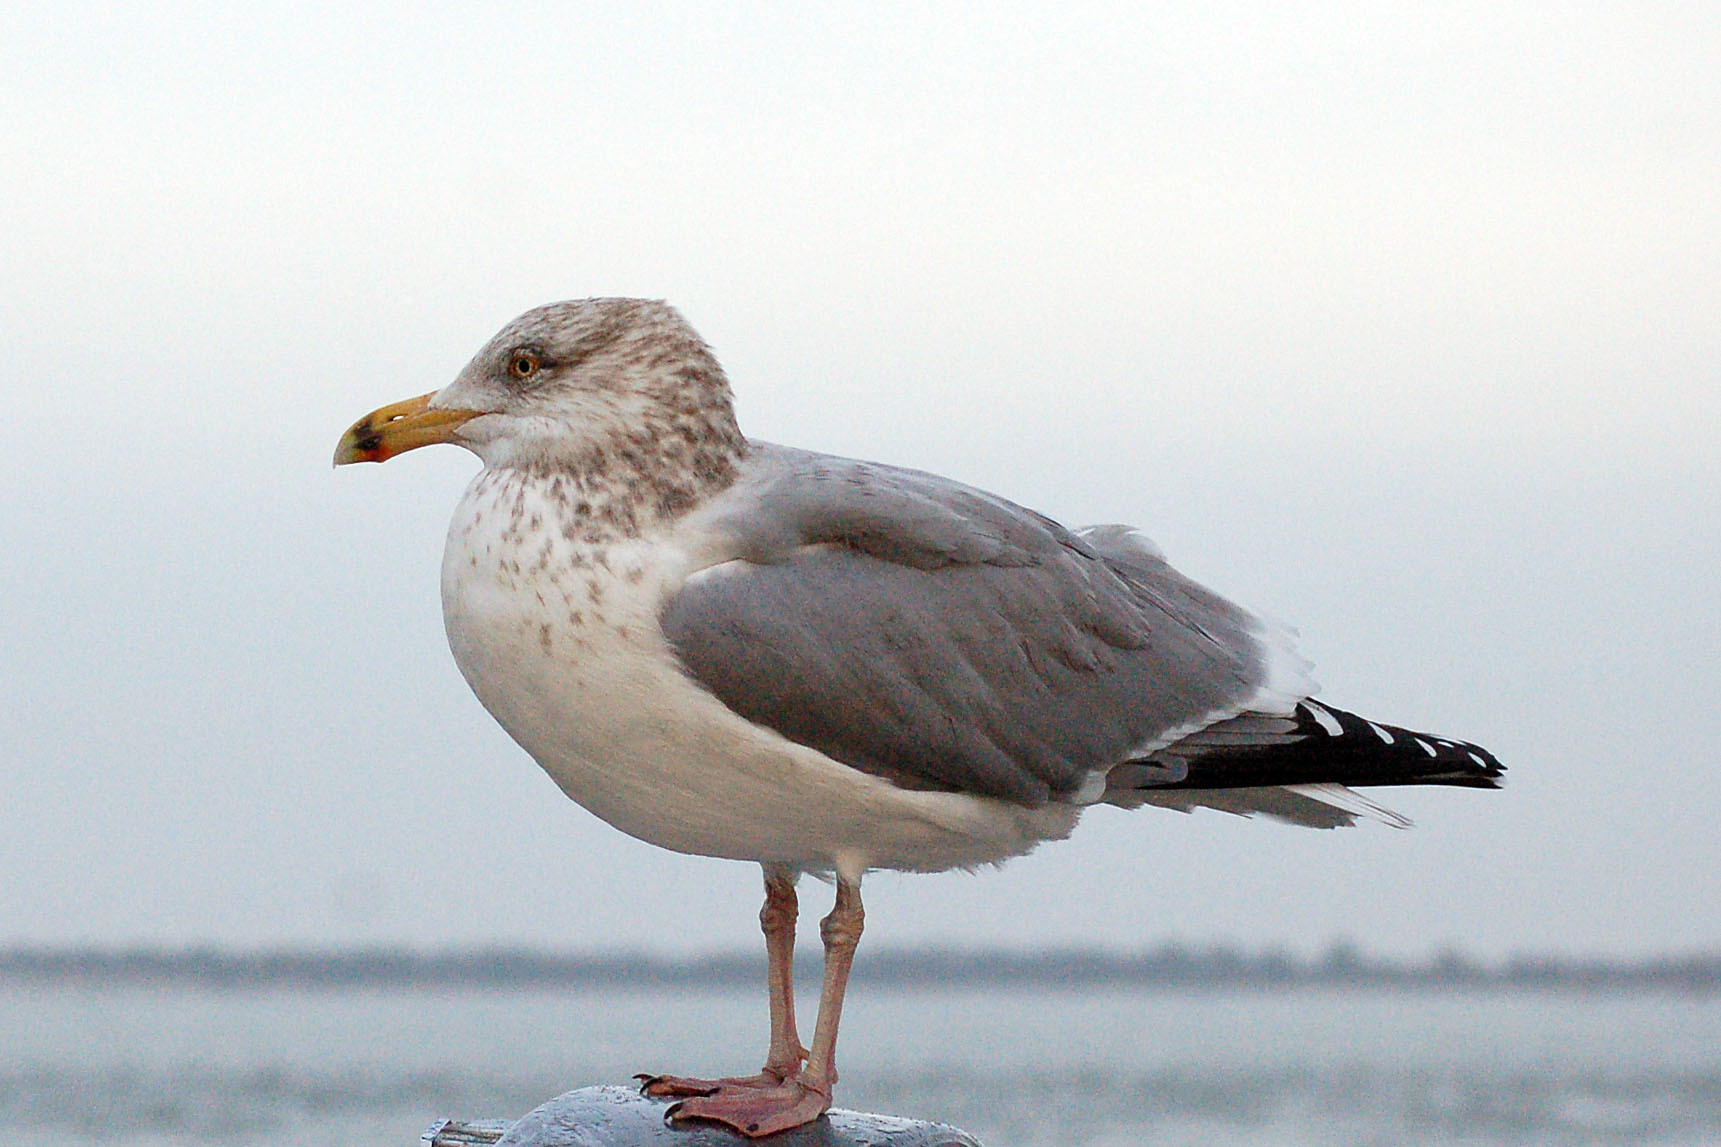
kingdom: Animalia
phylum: Chordata
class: Aves
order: Charadriiformes
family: Laridae
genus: Larus
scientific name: Larus argentatus
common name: Herring gull
